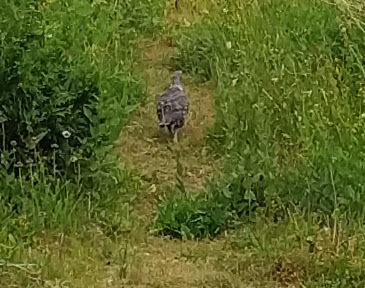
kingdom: Animalia
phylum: Chordata
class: Aves
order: Galliformes
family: Phasianidae
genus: Dendragapus
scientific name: Dendragapus fuliginosus
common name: Sooty grouse
